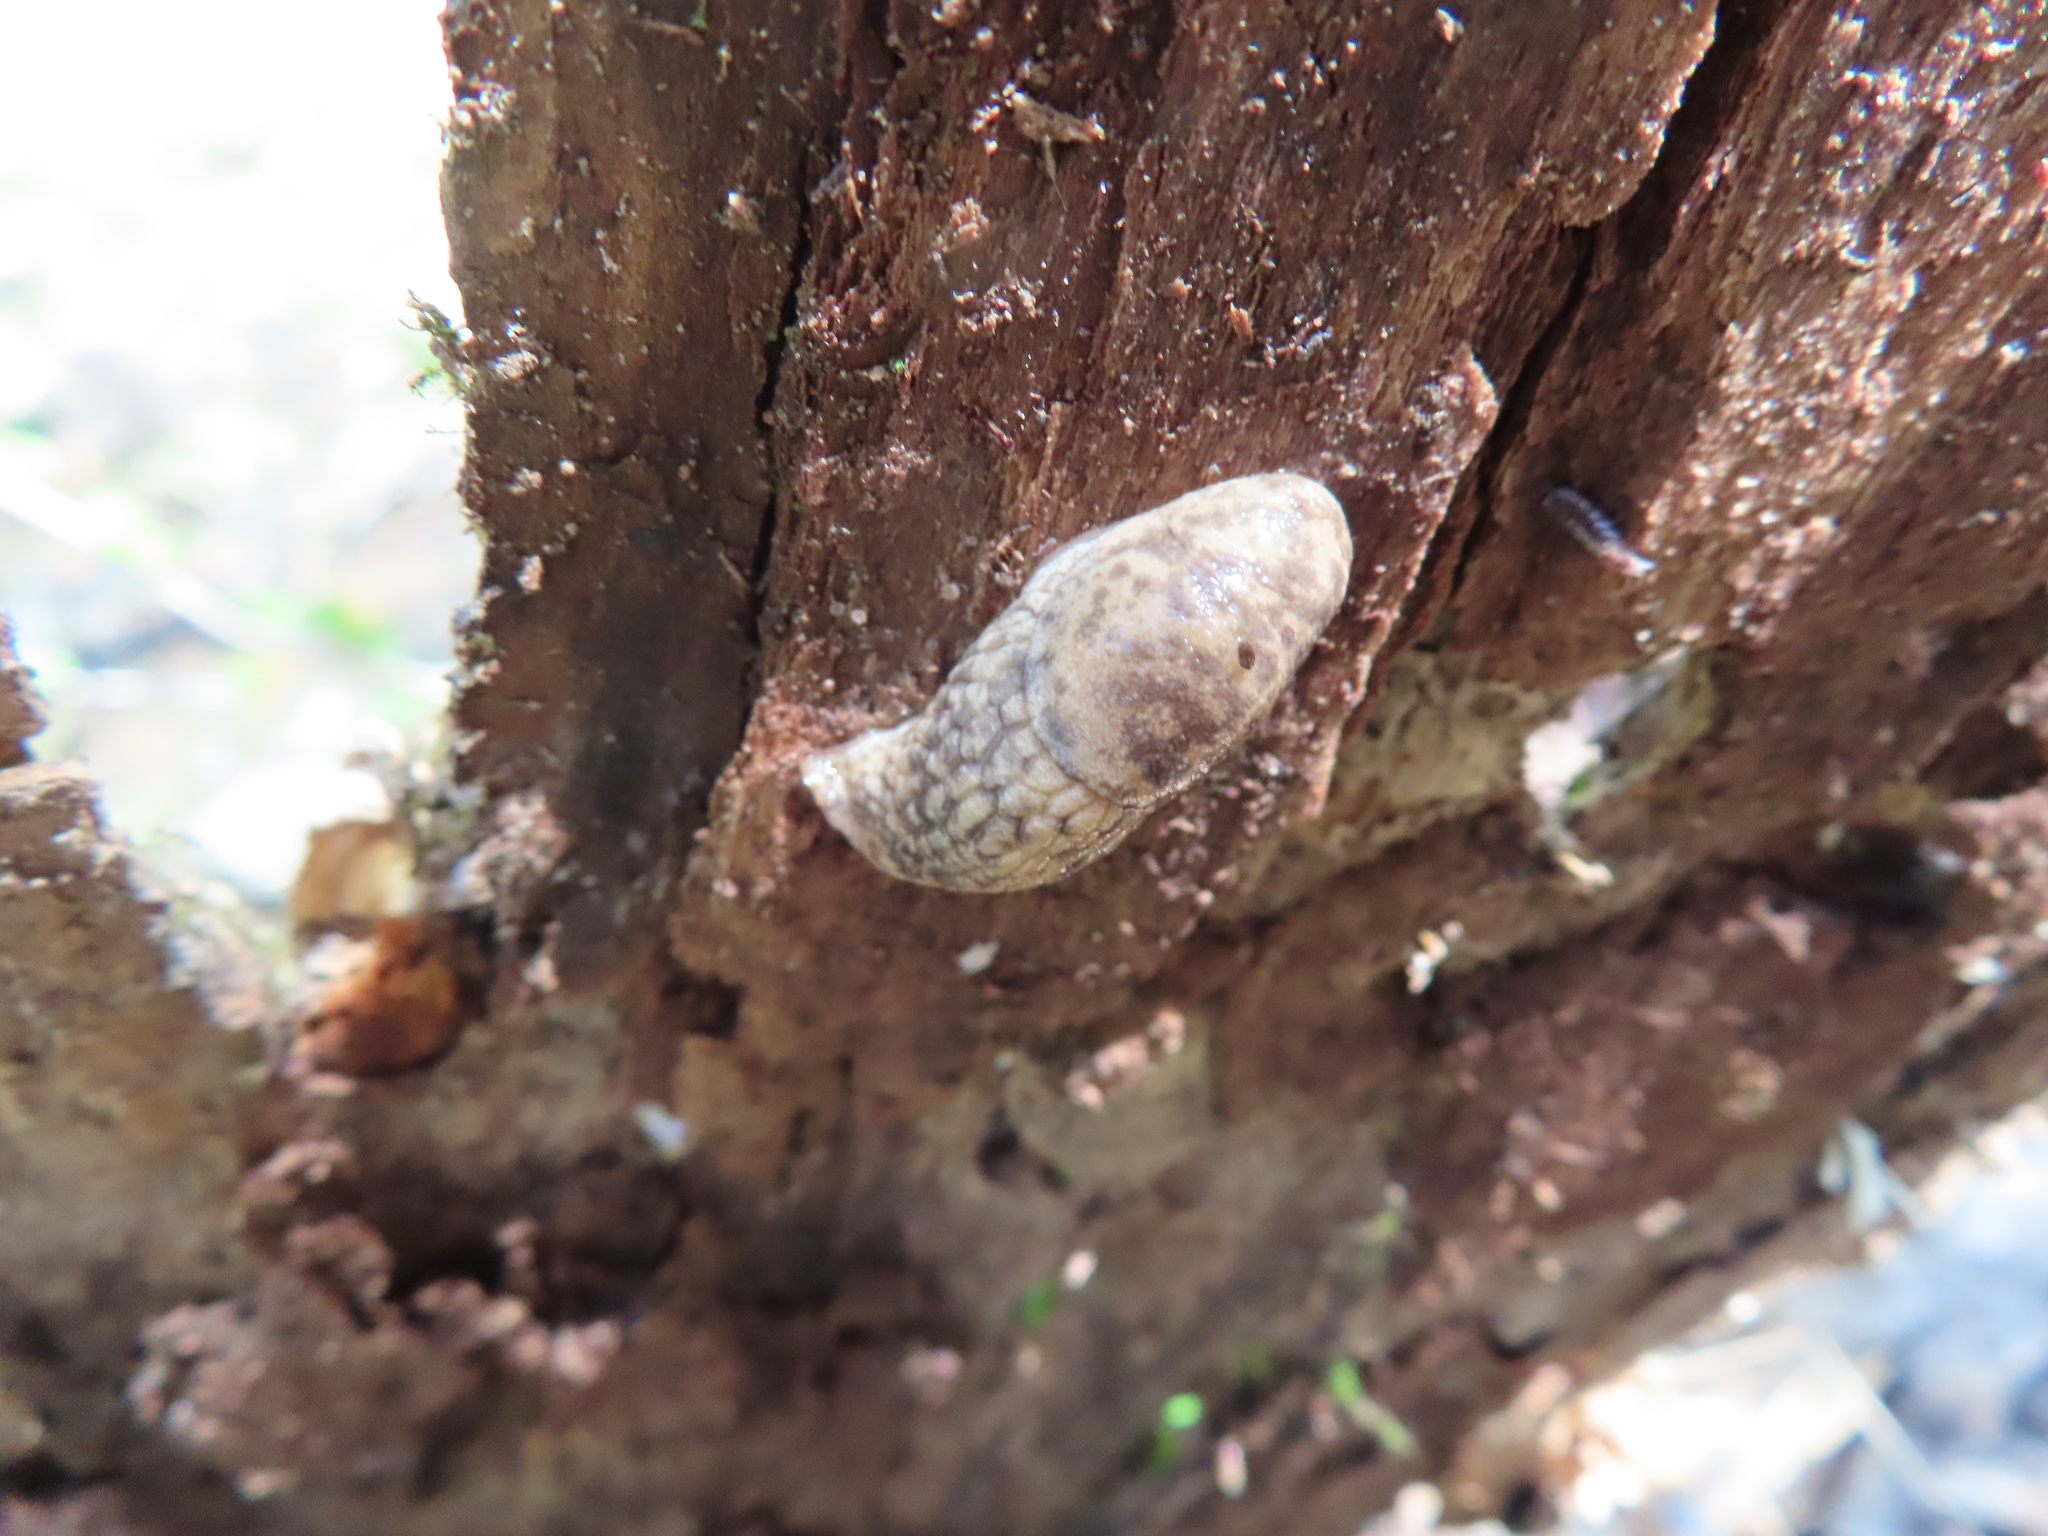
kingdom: Animalia
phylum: Mollusca
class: Gastropoda
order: Stylommatophora
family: Agriolimacidae
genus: Deroceras
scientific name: Deroceras reticulatum
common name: Gray field slug
